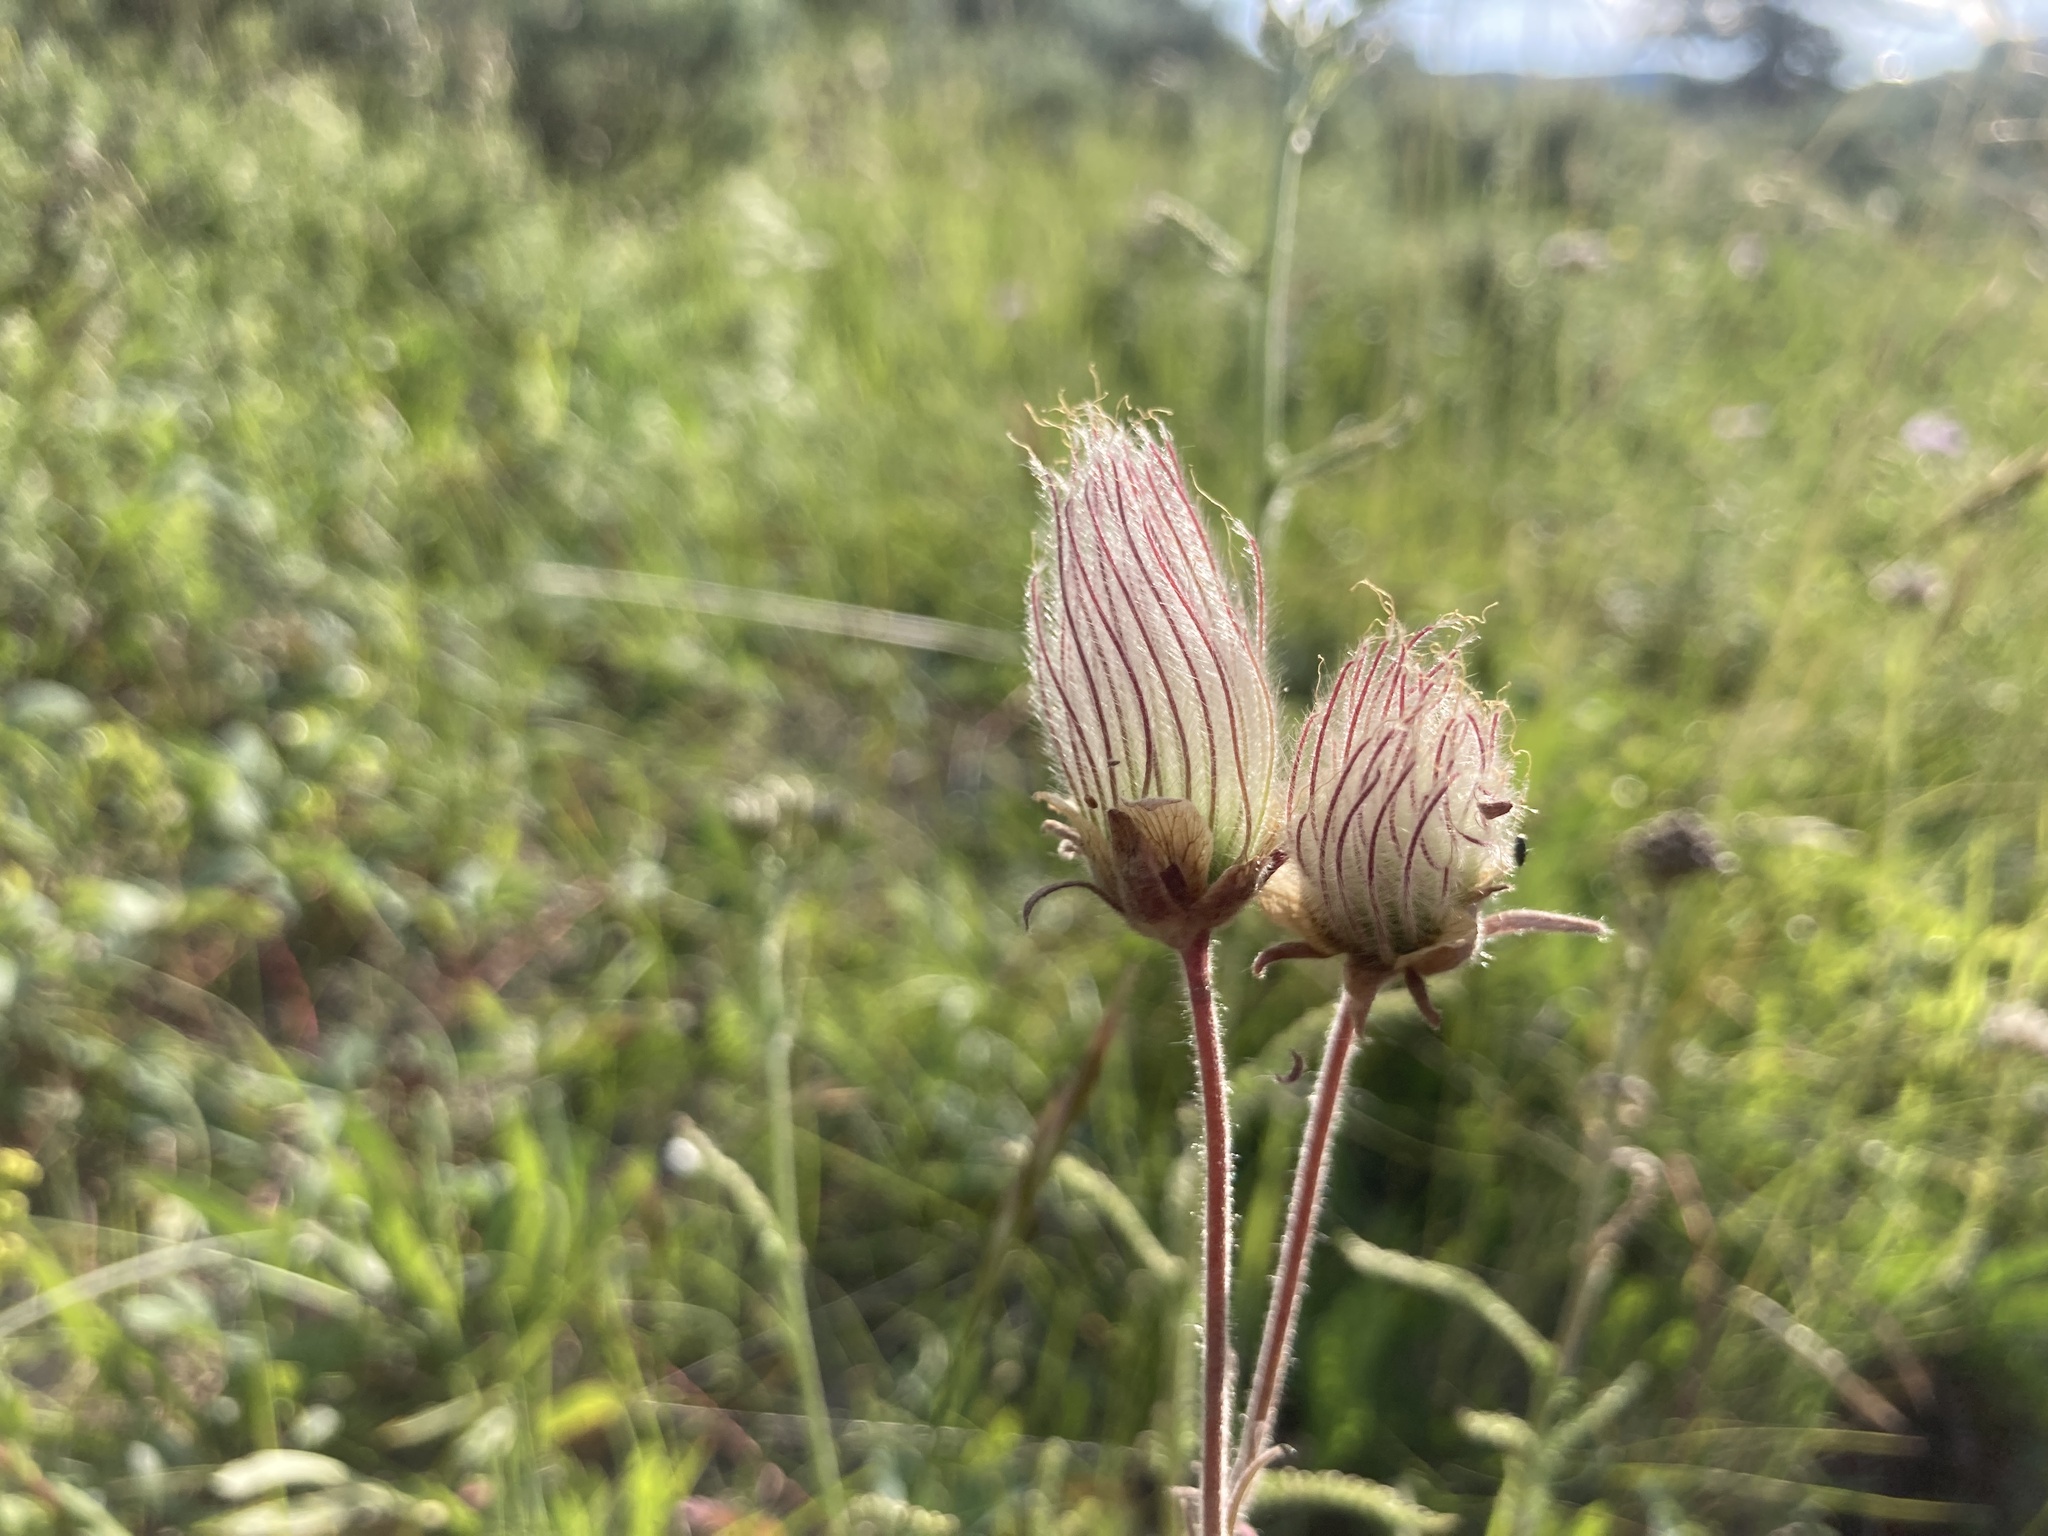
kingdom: Plantae
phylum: Tracheophyta
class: Magnoliopsida
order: Rosales
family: Rosaceae
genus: Geum
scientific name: Geum triflorum
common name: Old man's whiskers
